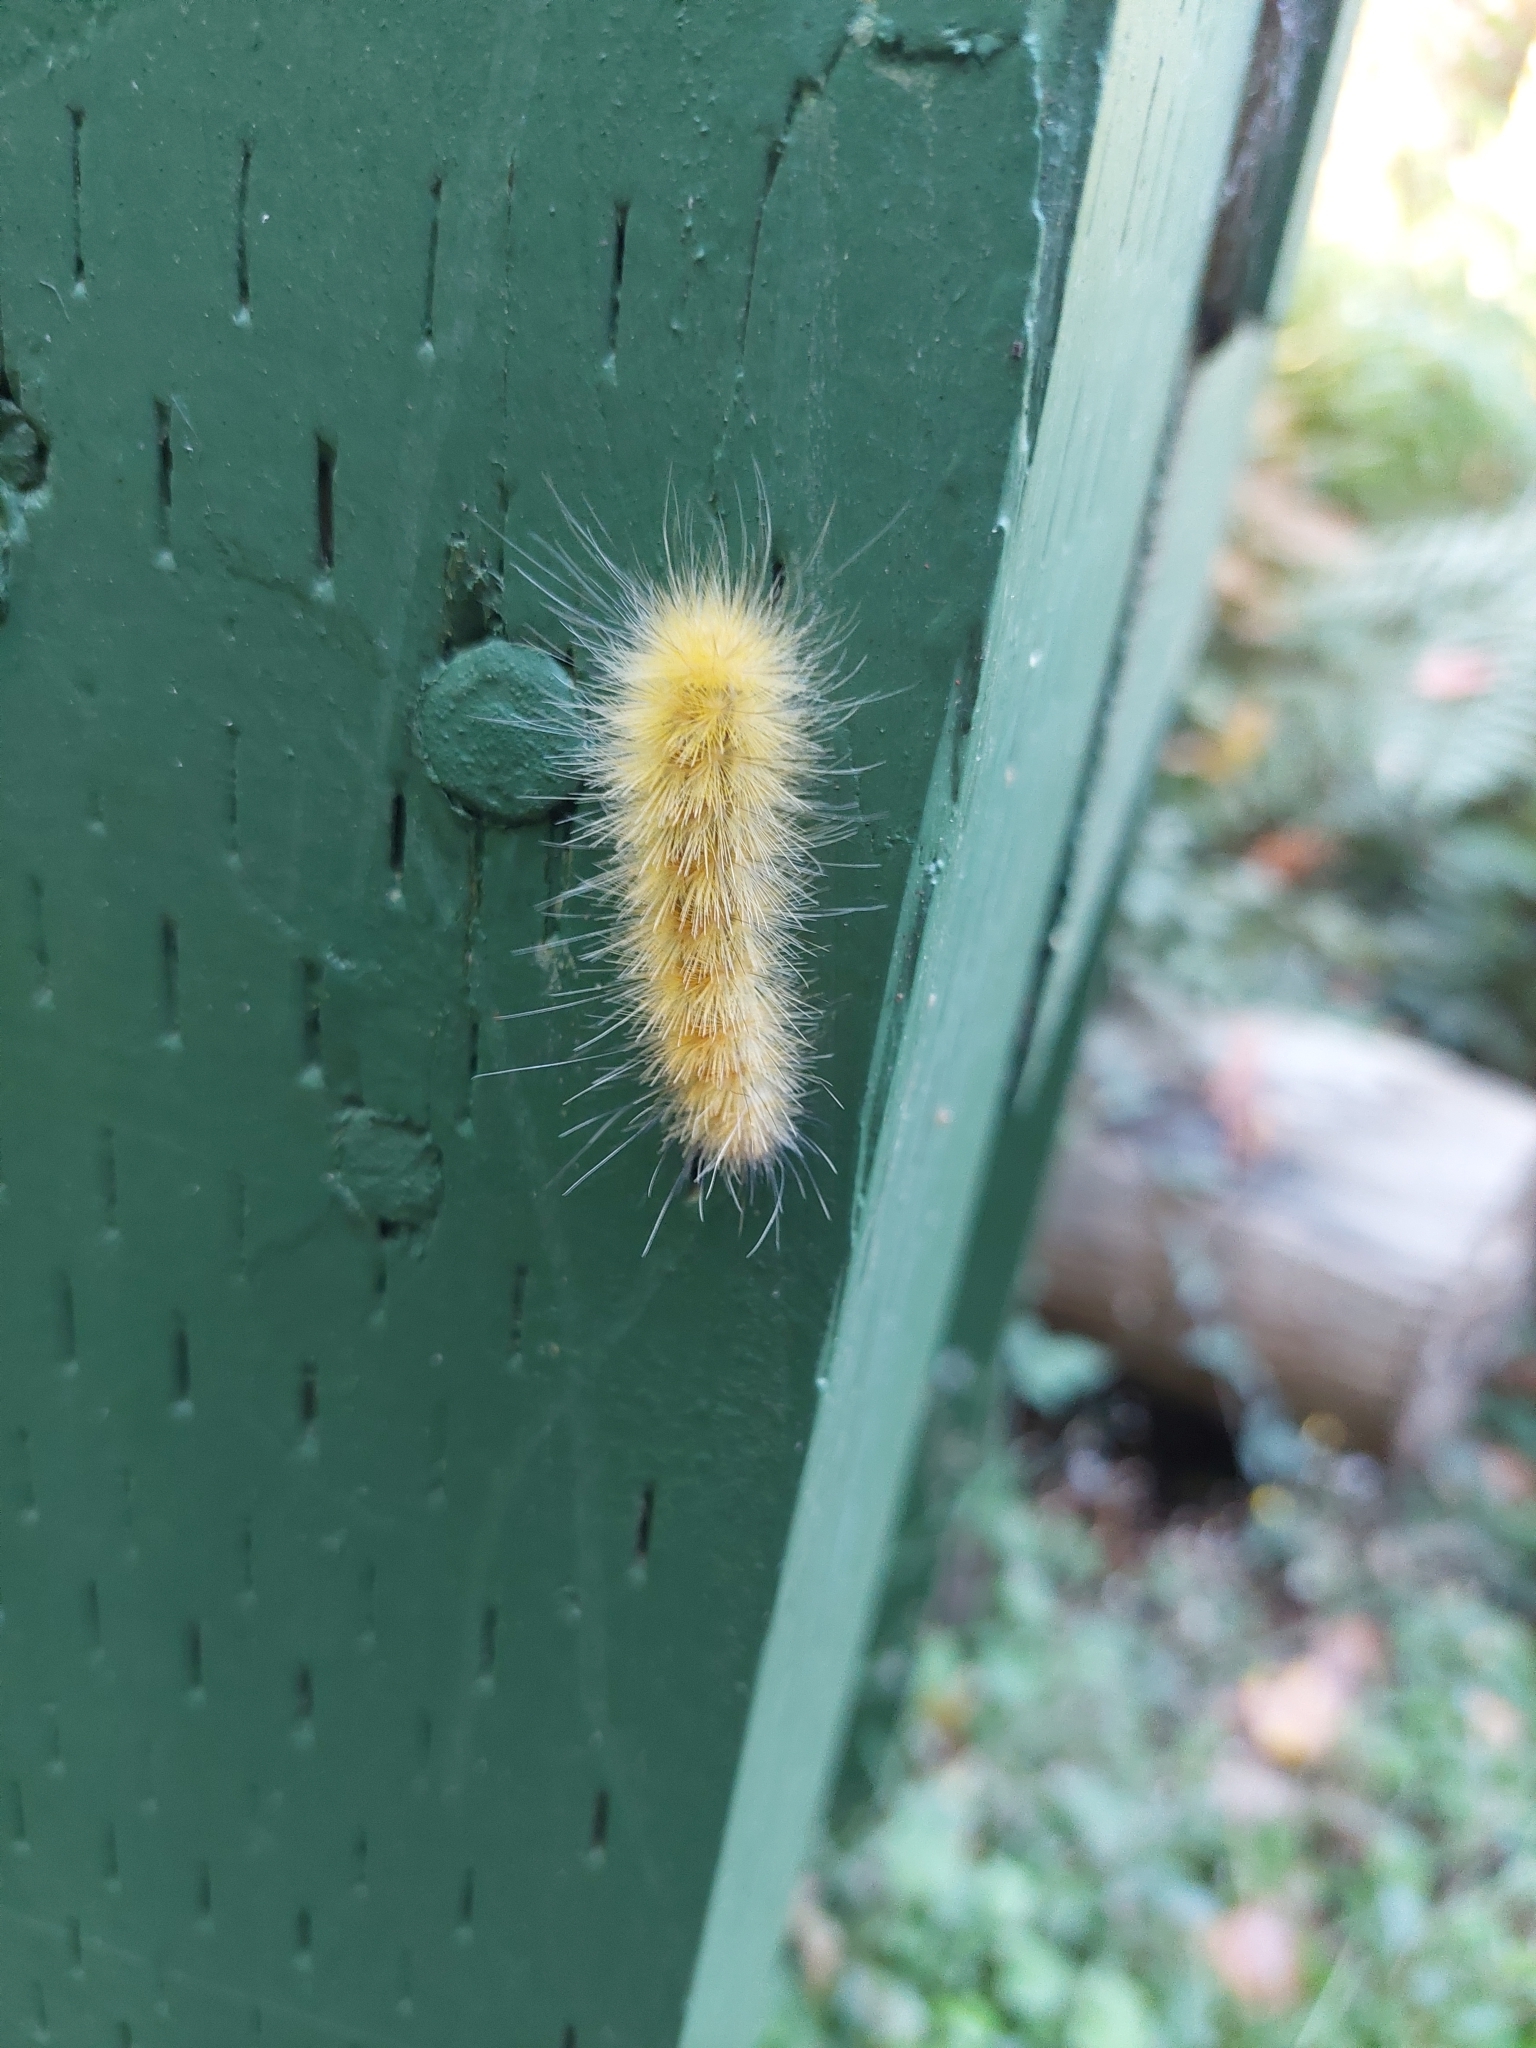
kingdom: Animalia
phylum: Arthropoda
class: Insecta
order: Lepidoptera
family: Erebidae
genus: Spilosoma
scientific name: Spilosoma virginica
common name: Virginia tiger moth
